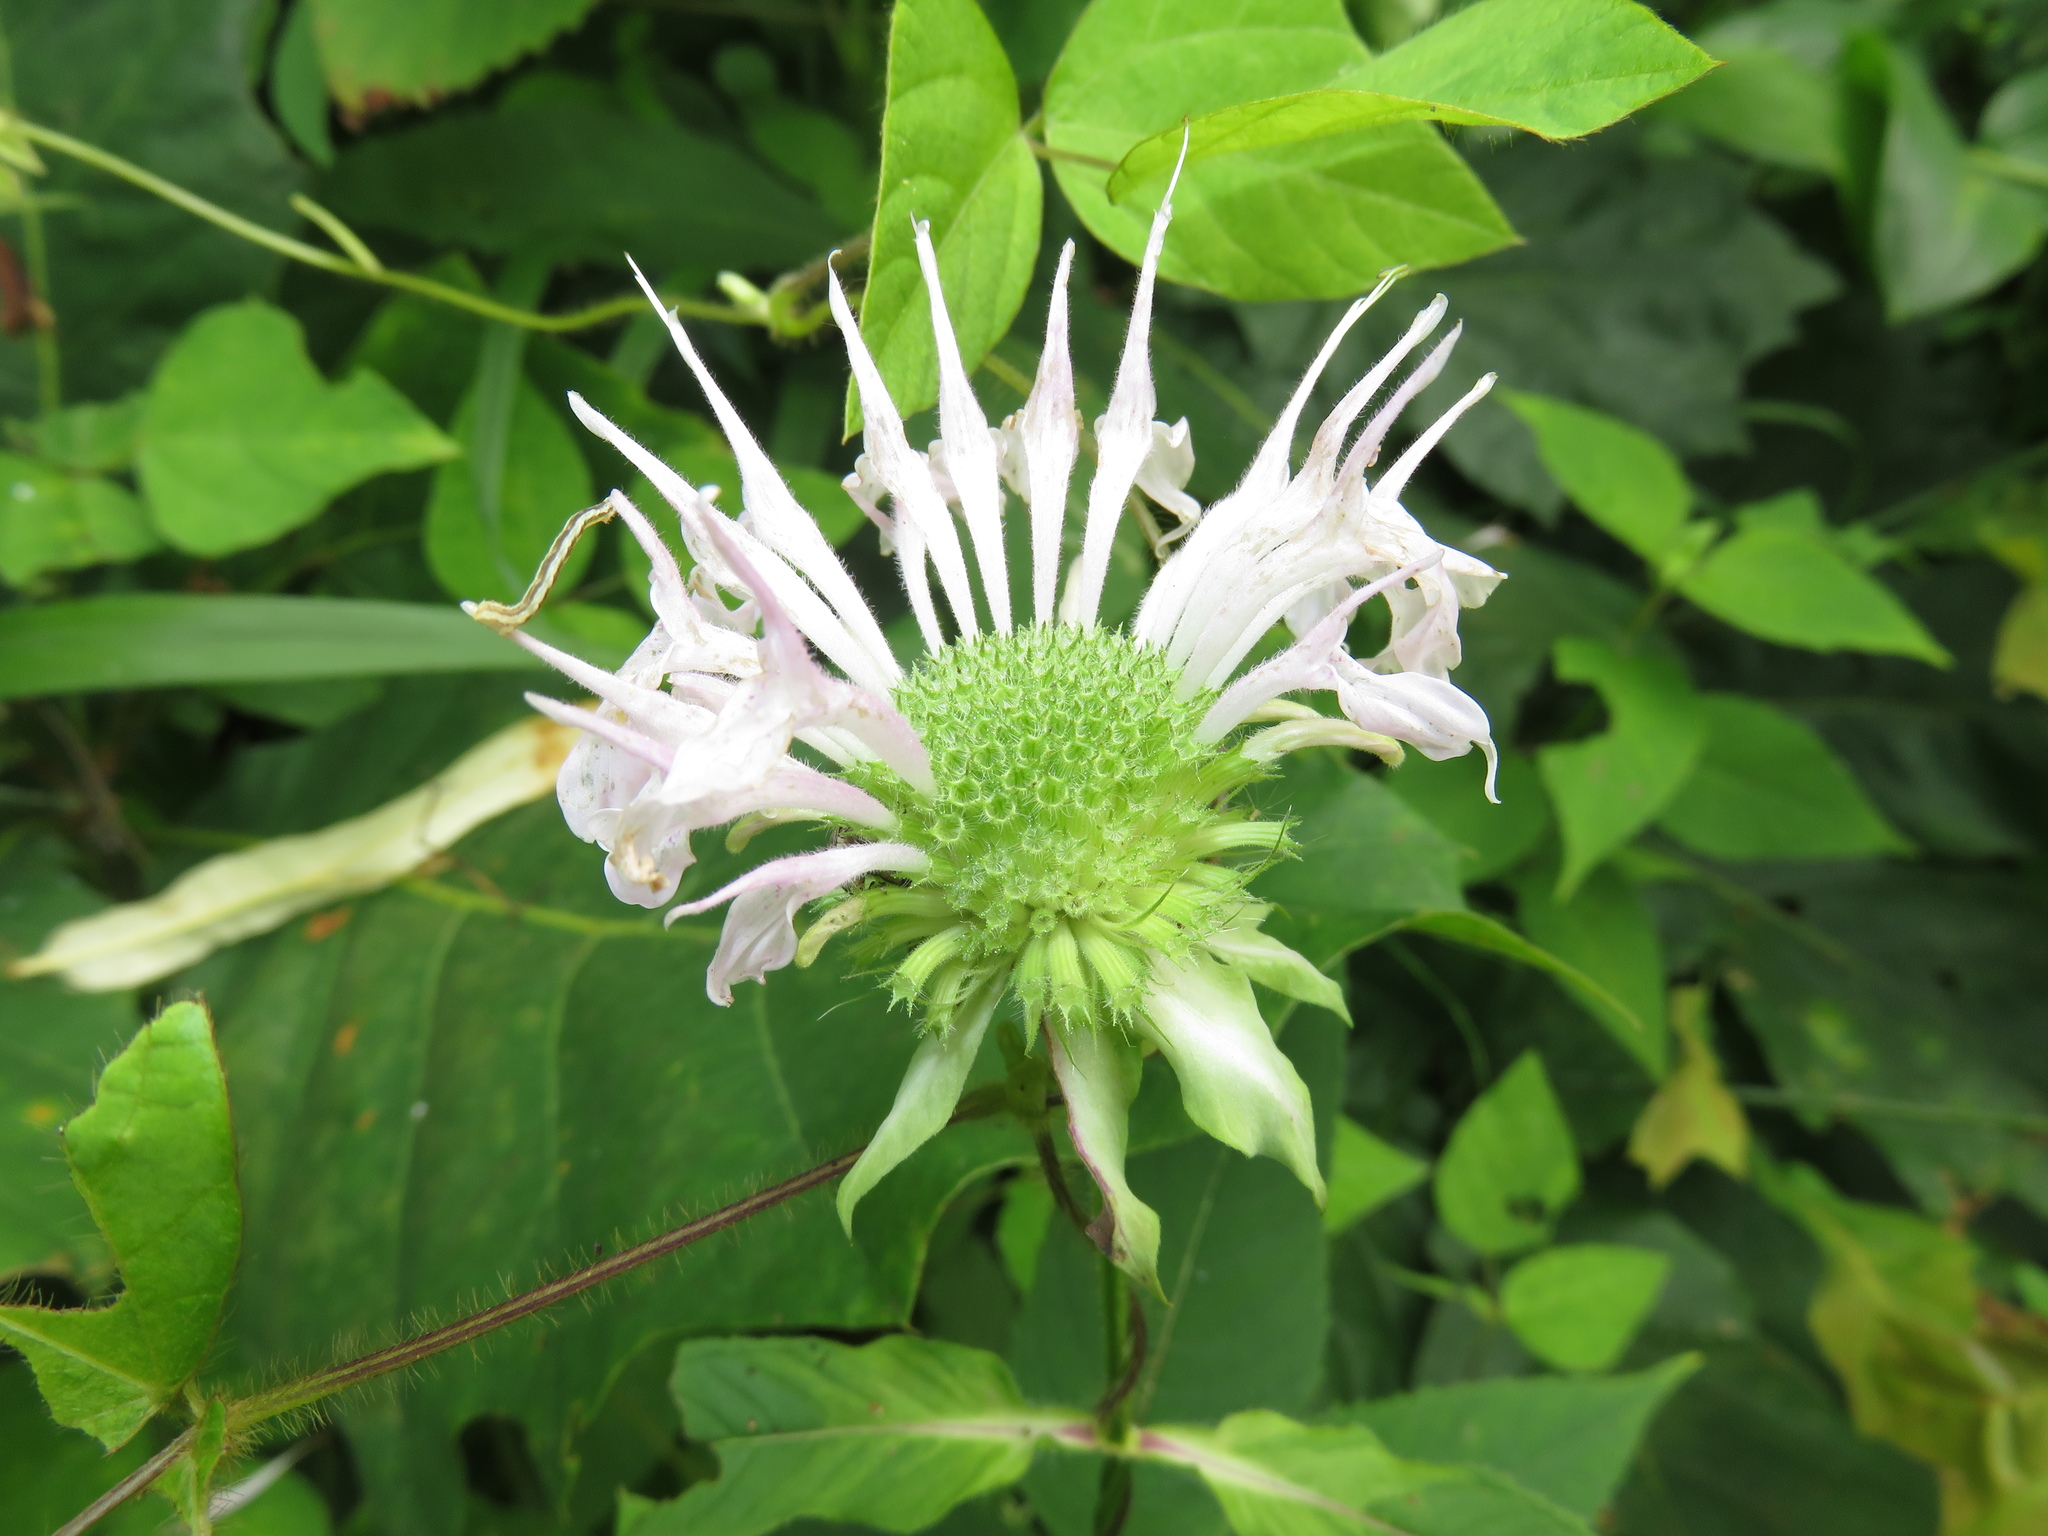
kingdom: Plantae
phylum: Tracheophyta
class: Magnoliopsida
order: Lamiales
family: Lamiaceae
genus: Monarda
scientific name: Monarda clinopodia
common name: Basil beebalm
